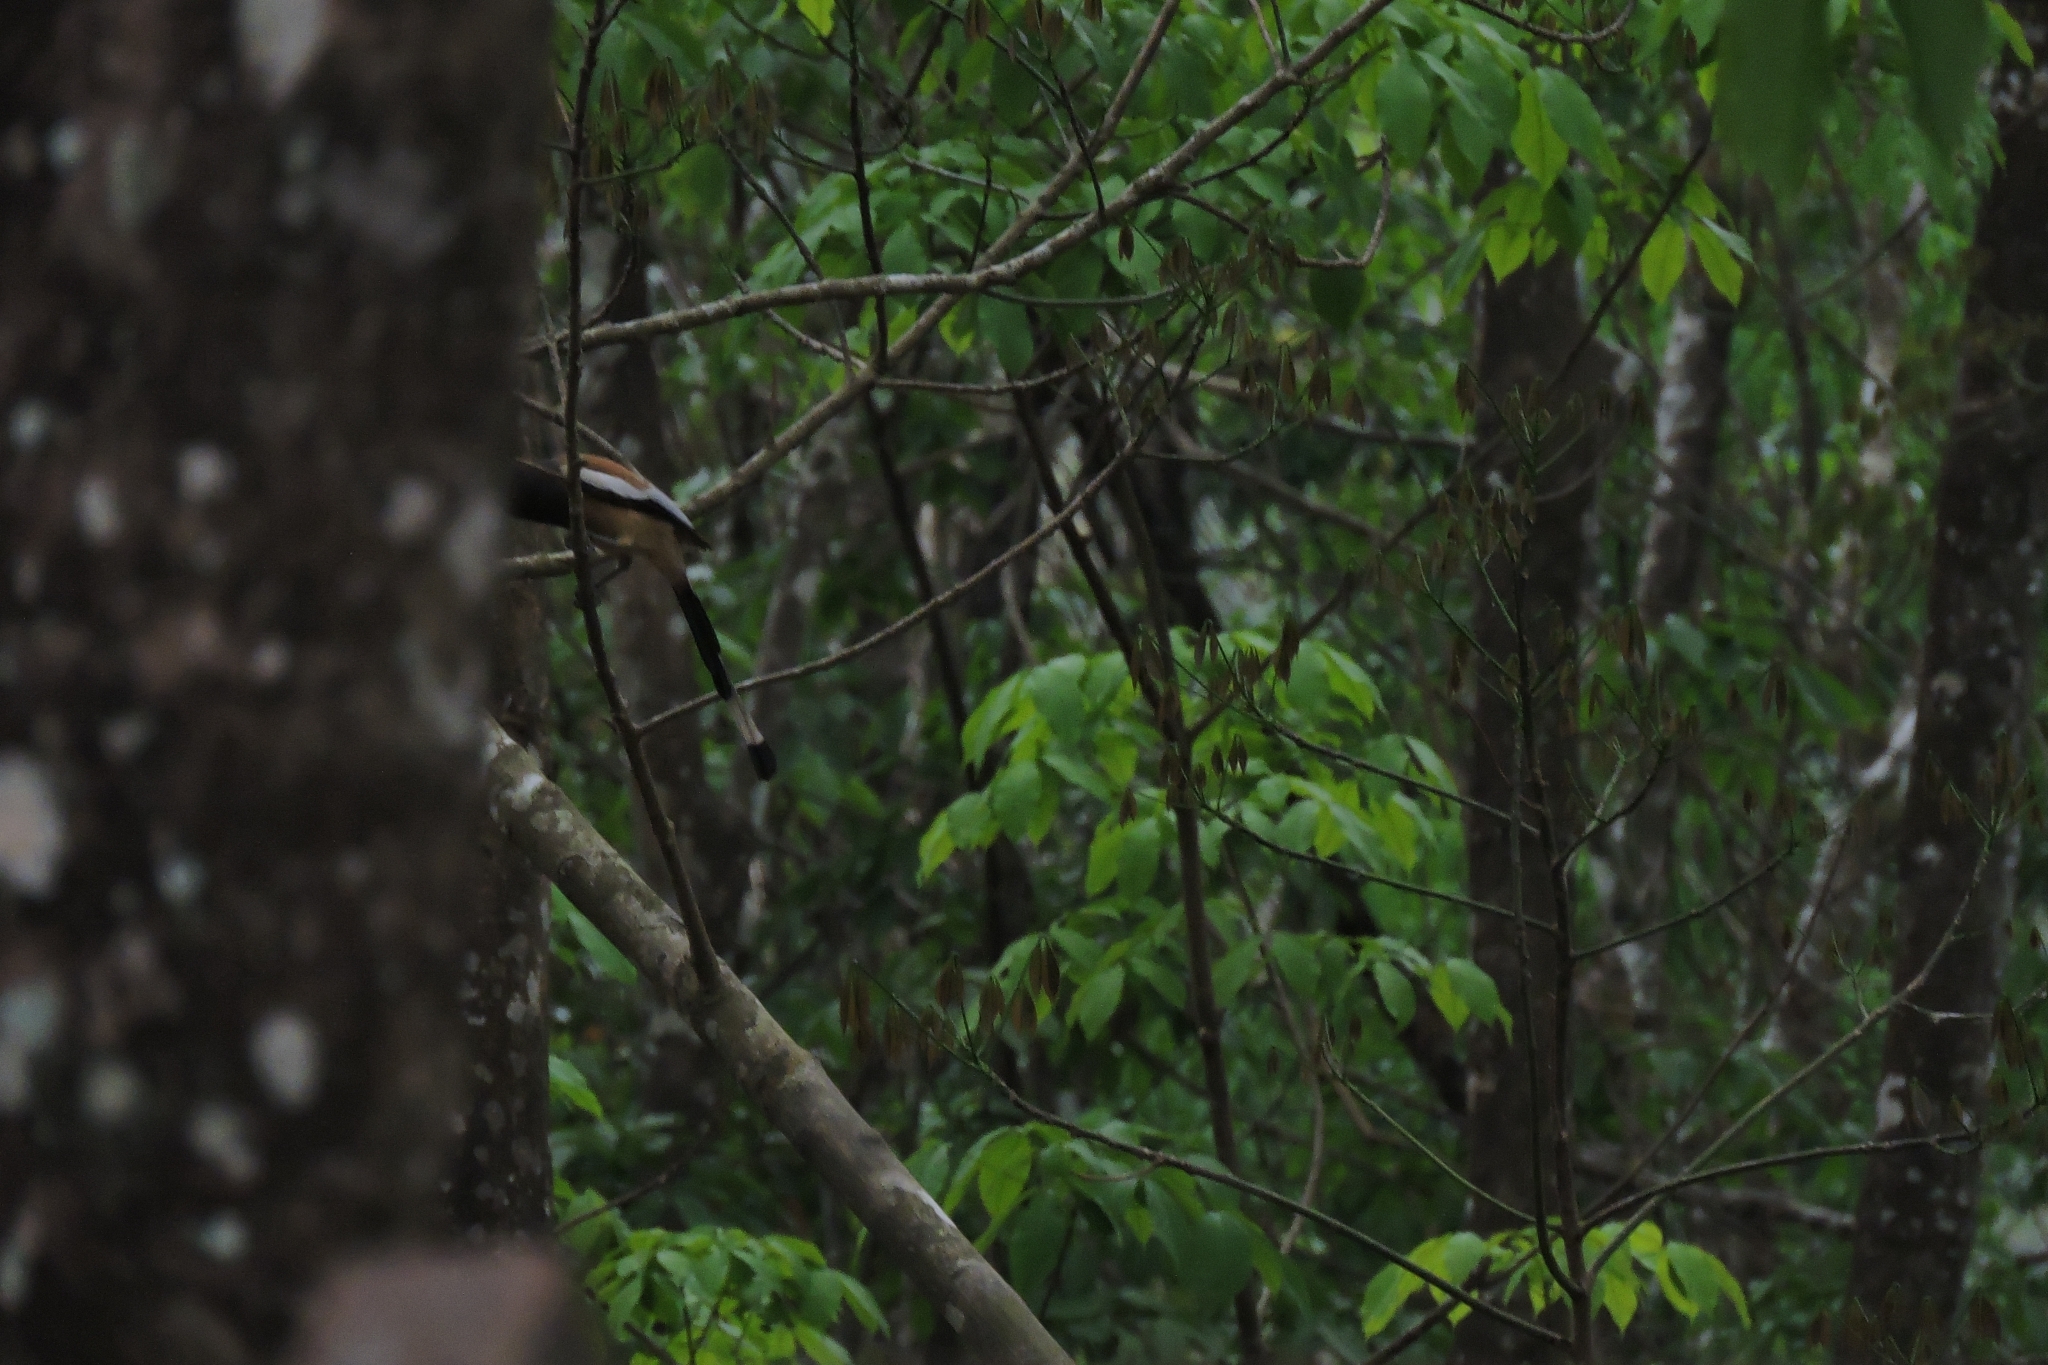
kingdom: Animalia
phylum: Chordata
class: Aves
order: Passeriformes
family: Corvidae
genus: Dendrocitta
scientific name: Dendrocitta vagabunda
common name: Rufous treepie
